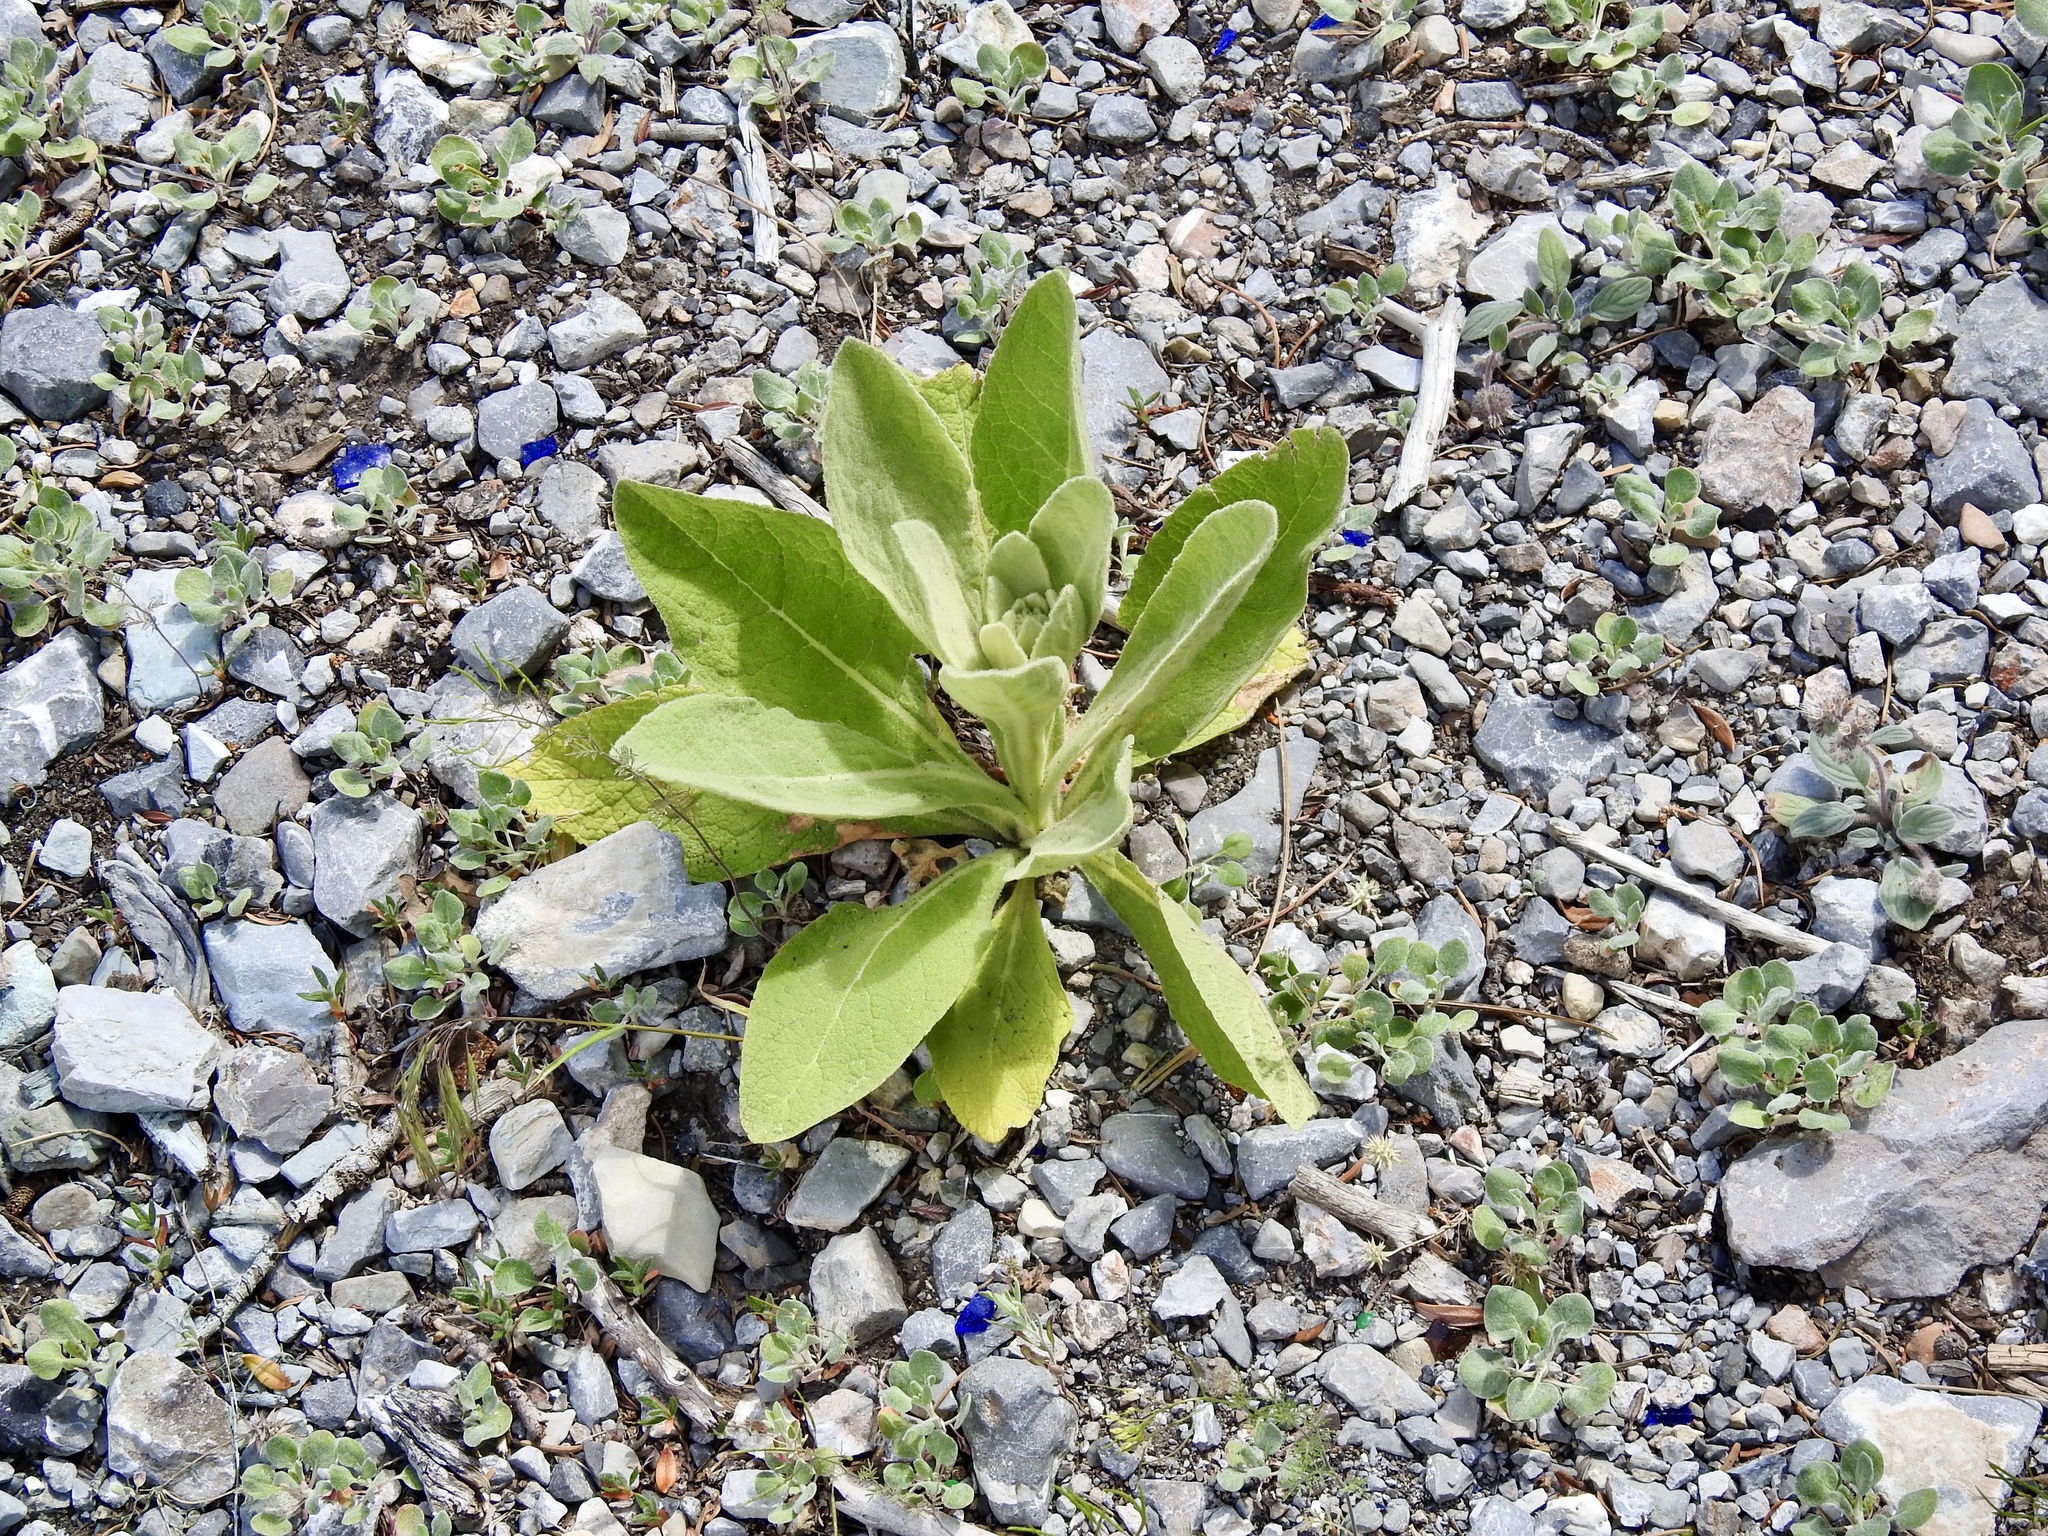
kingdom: Plantae
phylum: Tracheophyta
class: Magnoliopsida
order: Lamiales
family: Scrophulariaceae
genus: Verbascum
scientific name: Verbascum thapsus
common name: Common mullein
